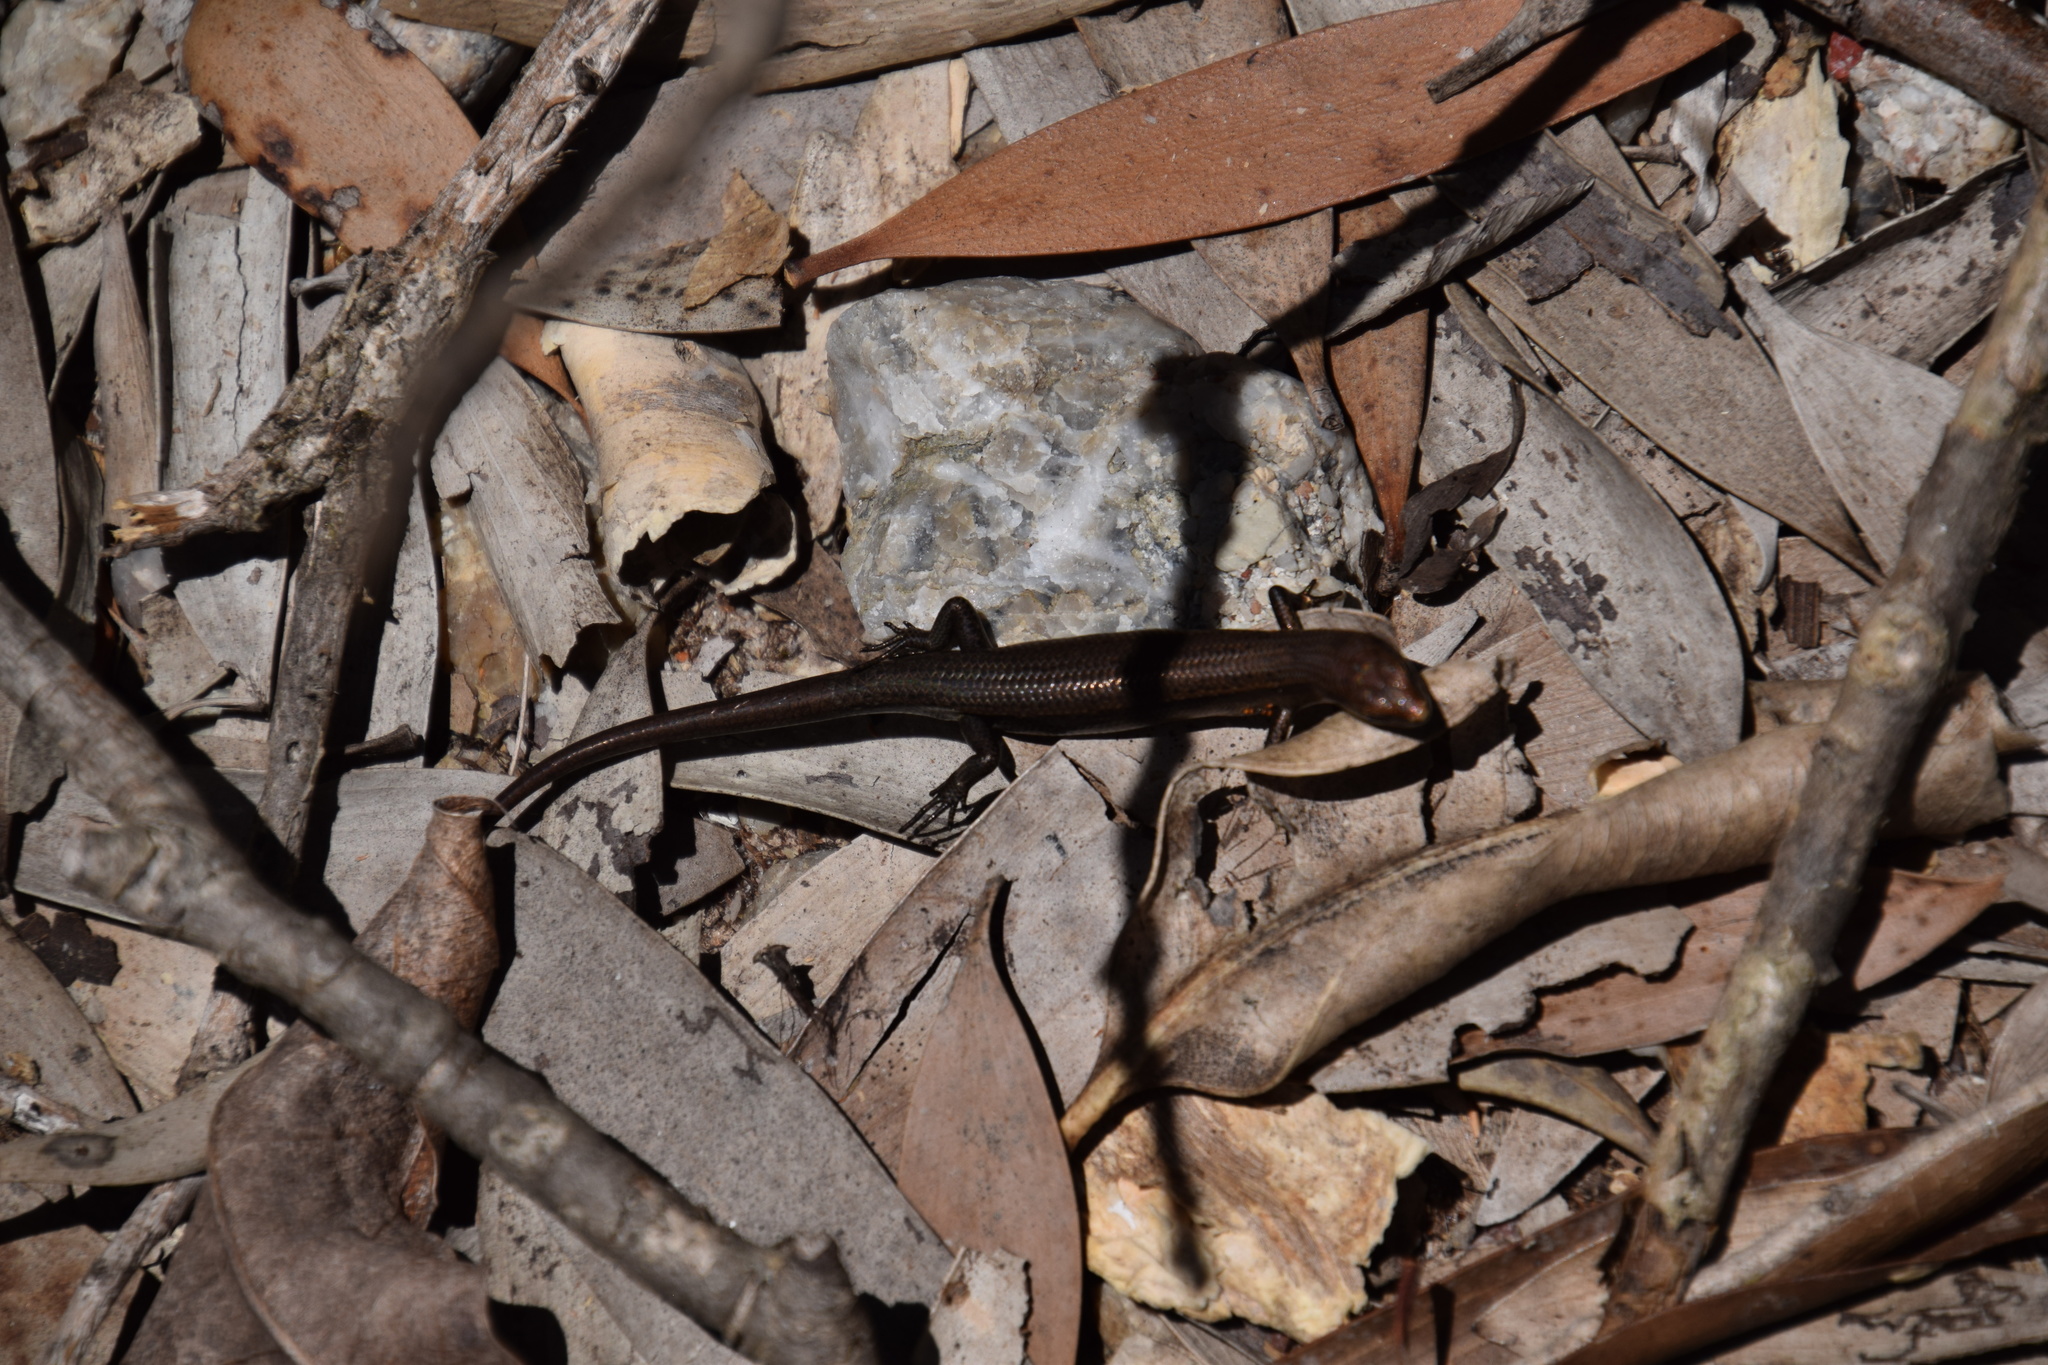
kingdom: Animalia
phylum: Chordata
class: Squamata
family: Scincidae
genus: Lampropholis
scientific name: Lampropholis delicata
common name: Plague skink
